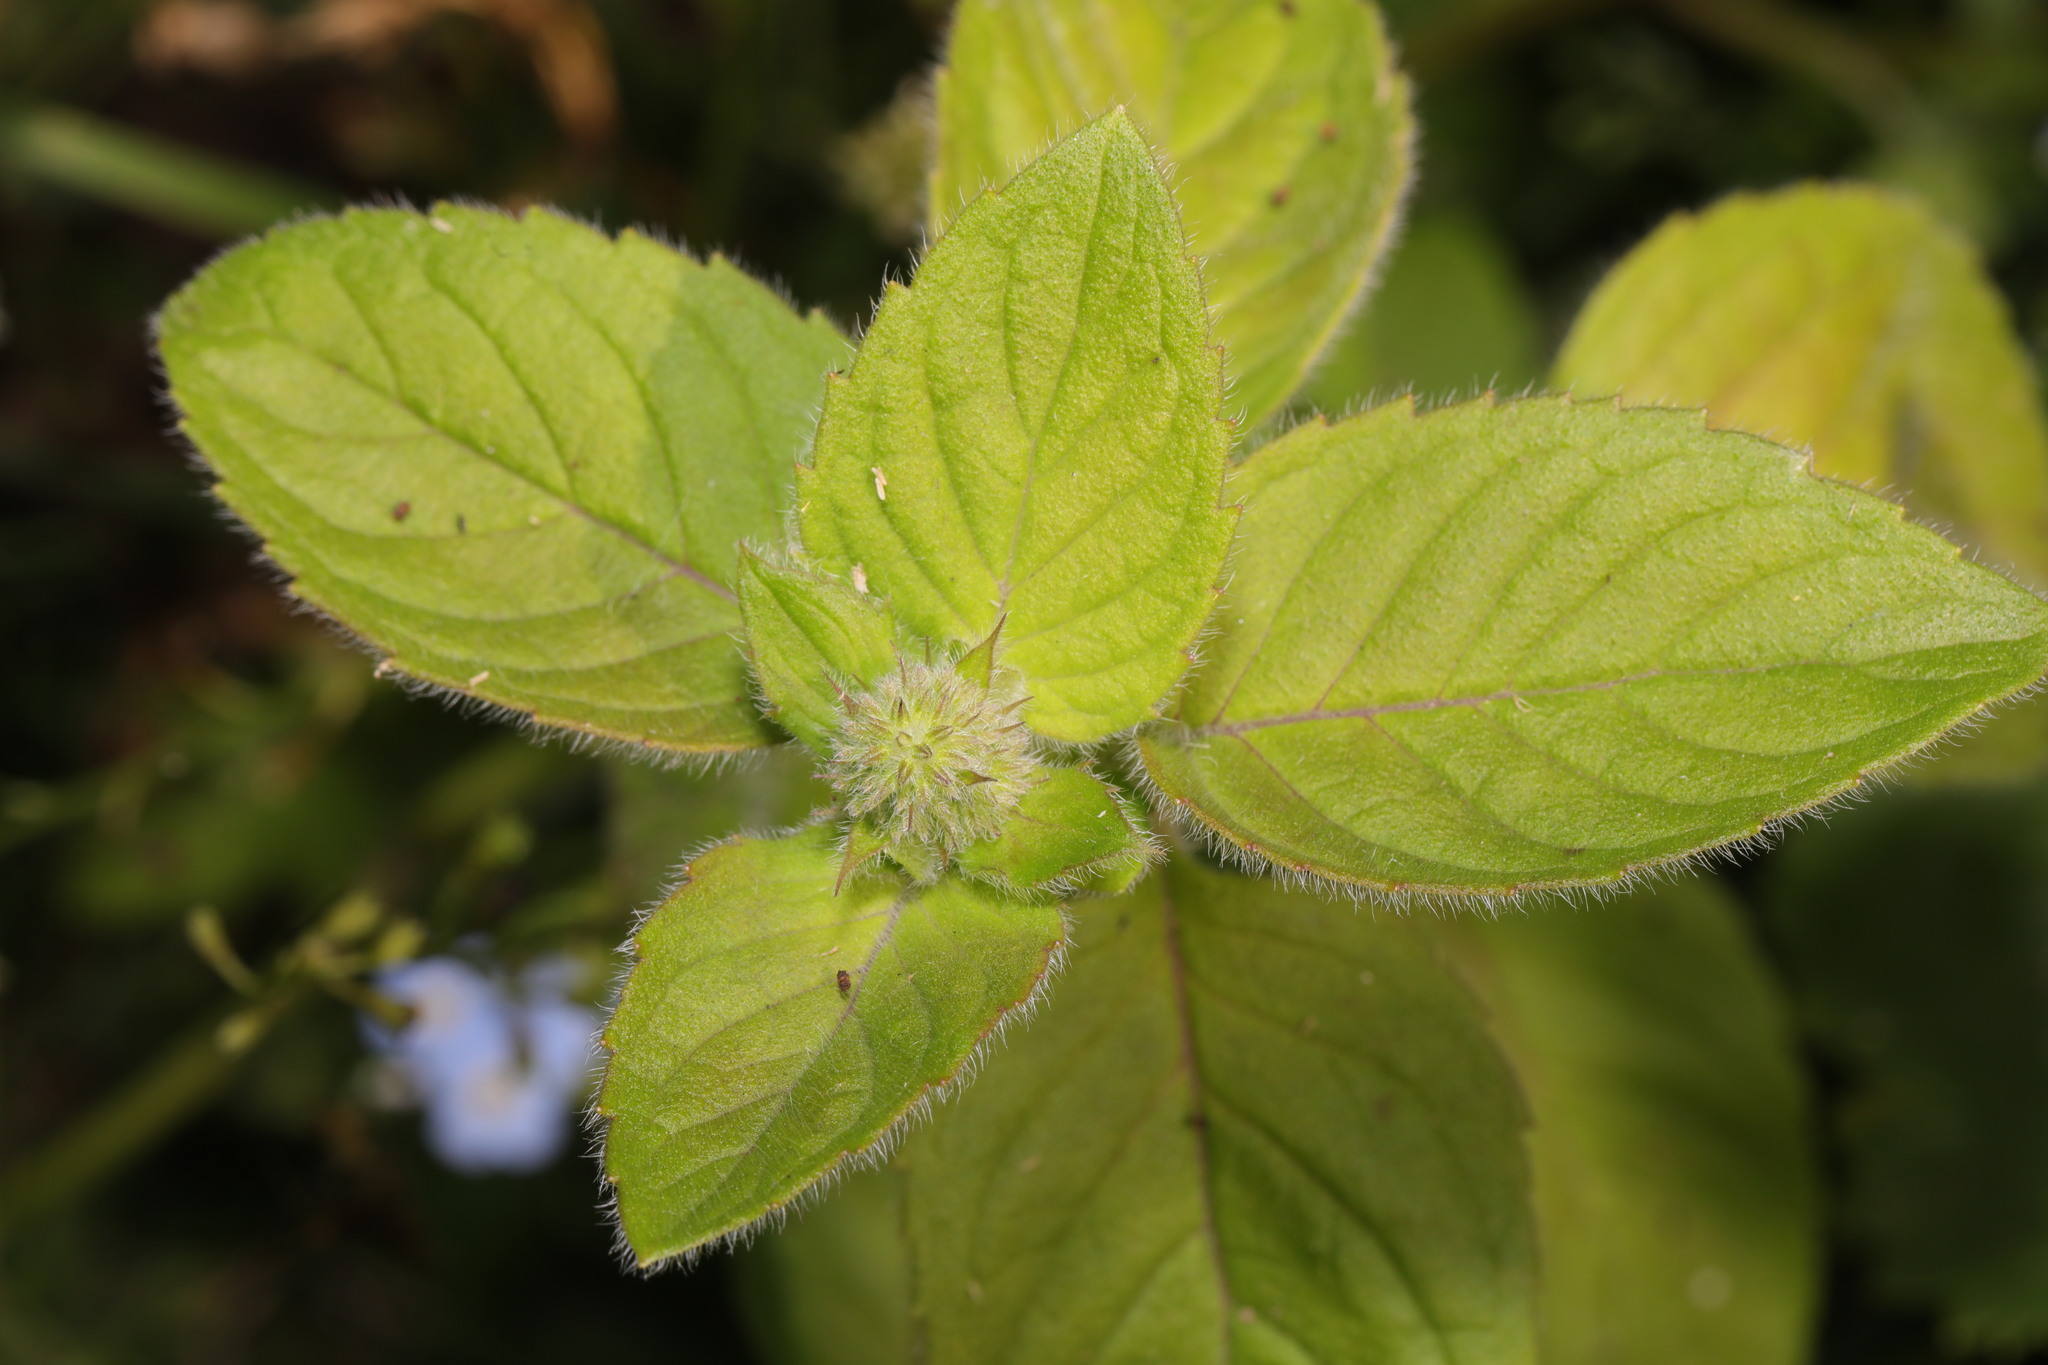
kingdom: Plantae
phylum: Tracheophyta
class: Magnoliopsida
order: Lamiales
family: Lamiaceae
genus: Mentha
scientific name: Mentha aquatica
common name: Water mint
